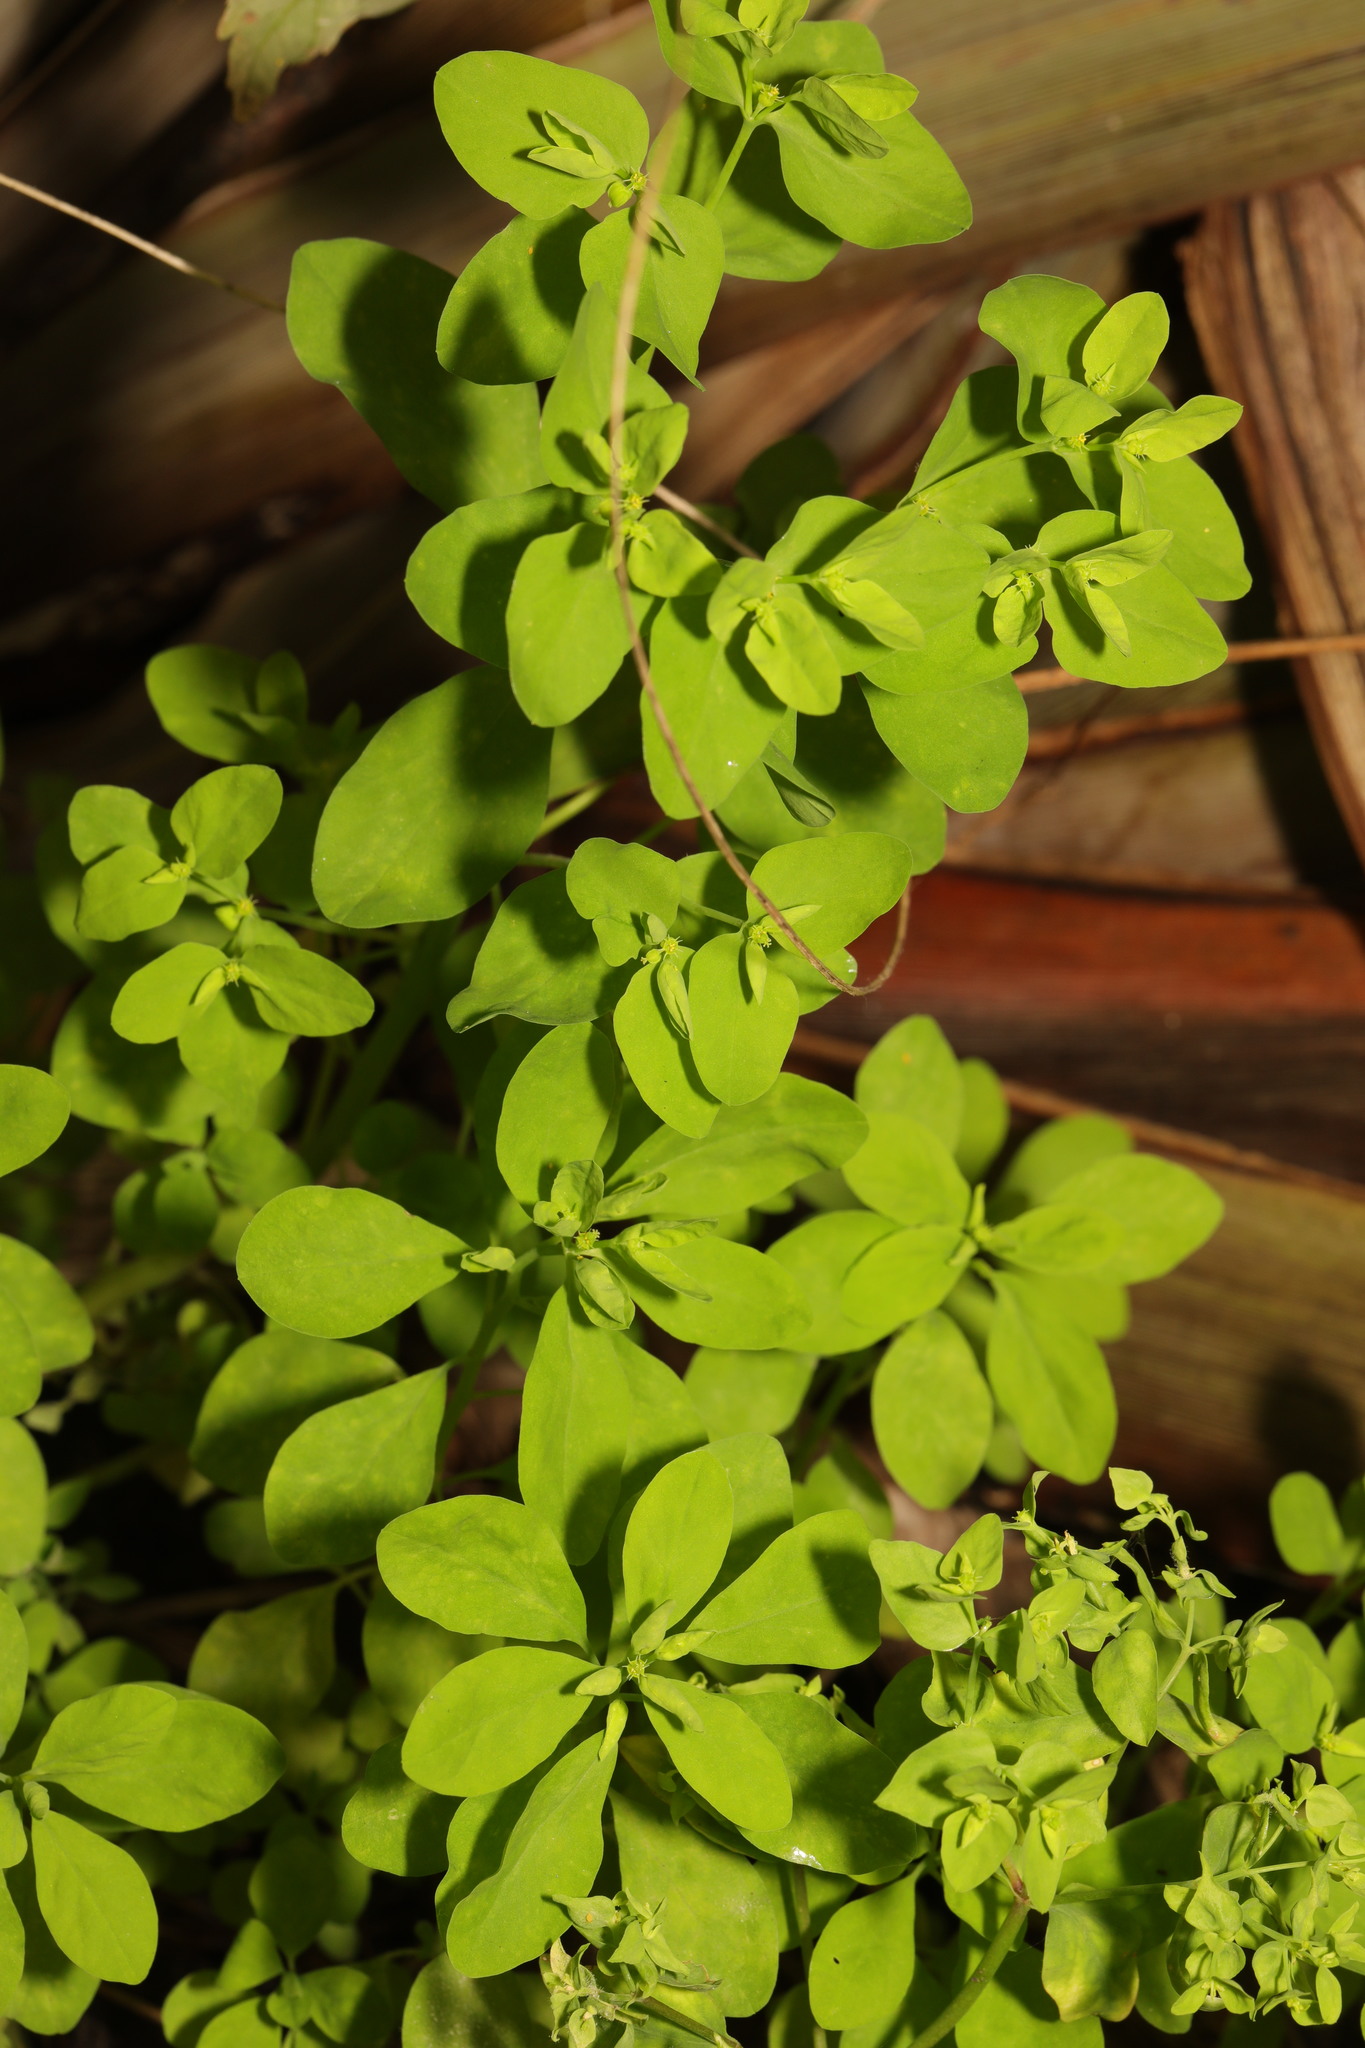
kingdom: Plantae
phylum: Tracheophyta
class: Magnoliopsida
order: Malpighiales
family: Euphorbiaceae
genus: Euphorbia
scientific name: Euphorbia peplus
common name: Petty spurge
